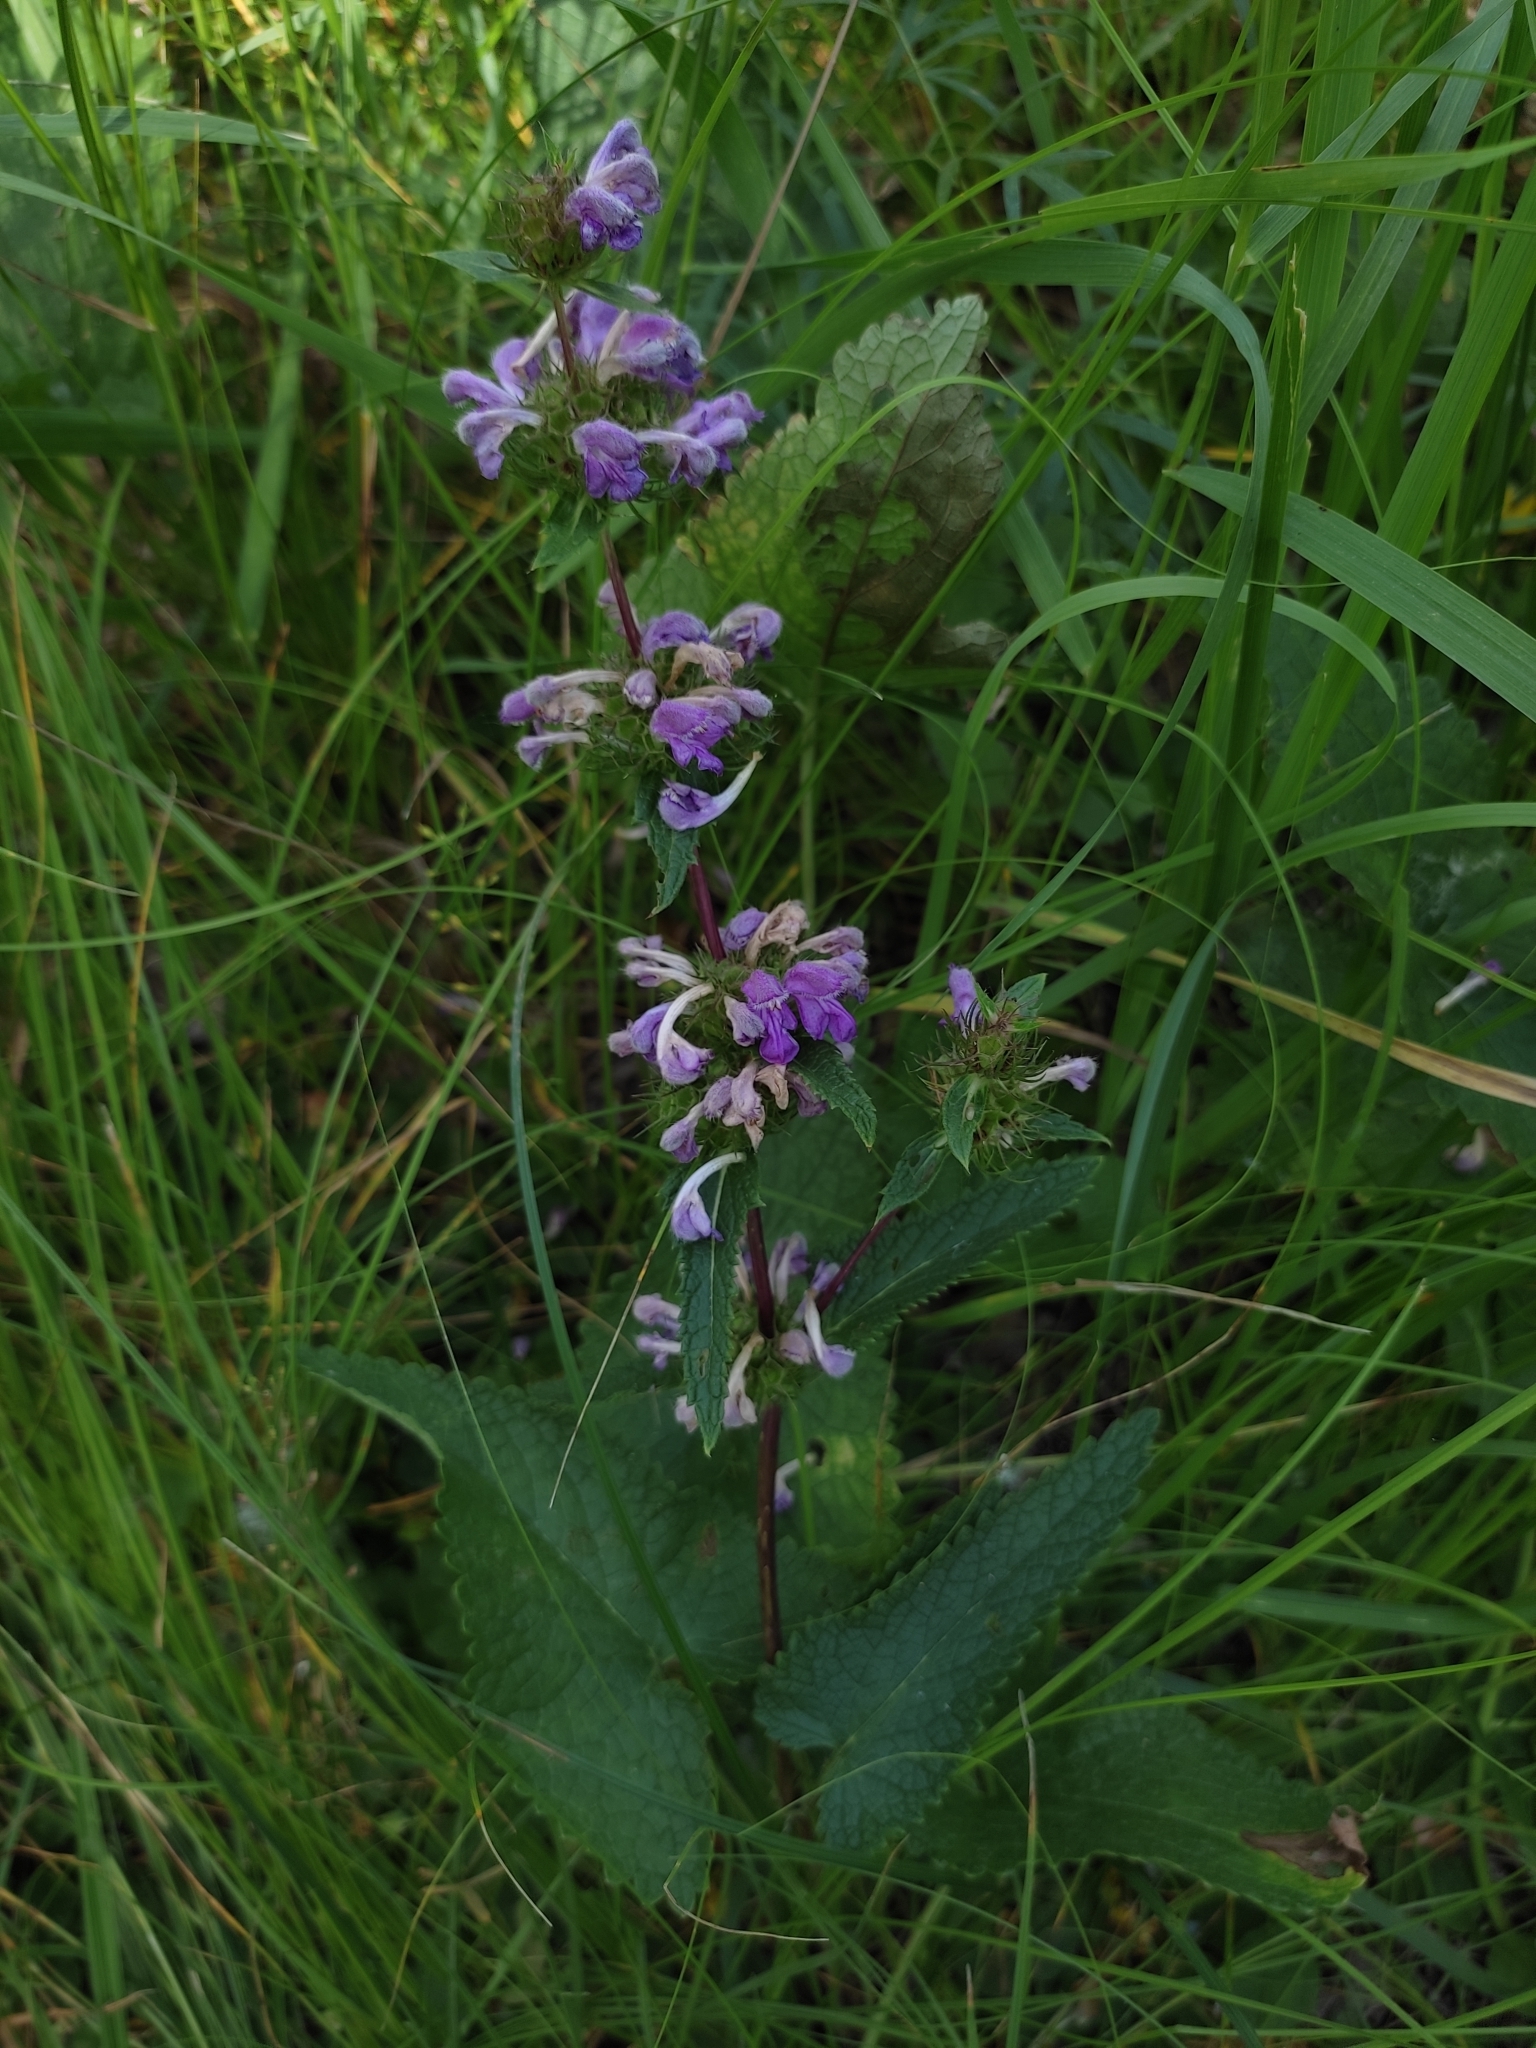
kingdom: Plantae
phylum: Tracheophyta
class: Magnoliopsida
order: Lamiales
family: Lamiaceae
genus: Phlomoides
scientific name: Phlomoides tuberosa
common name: Tuberous jerusalem sage
